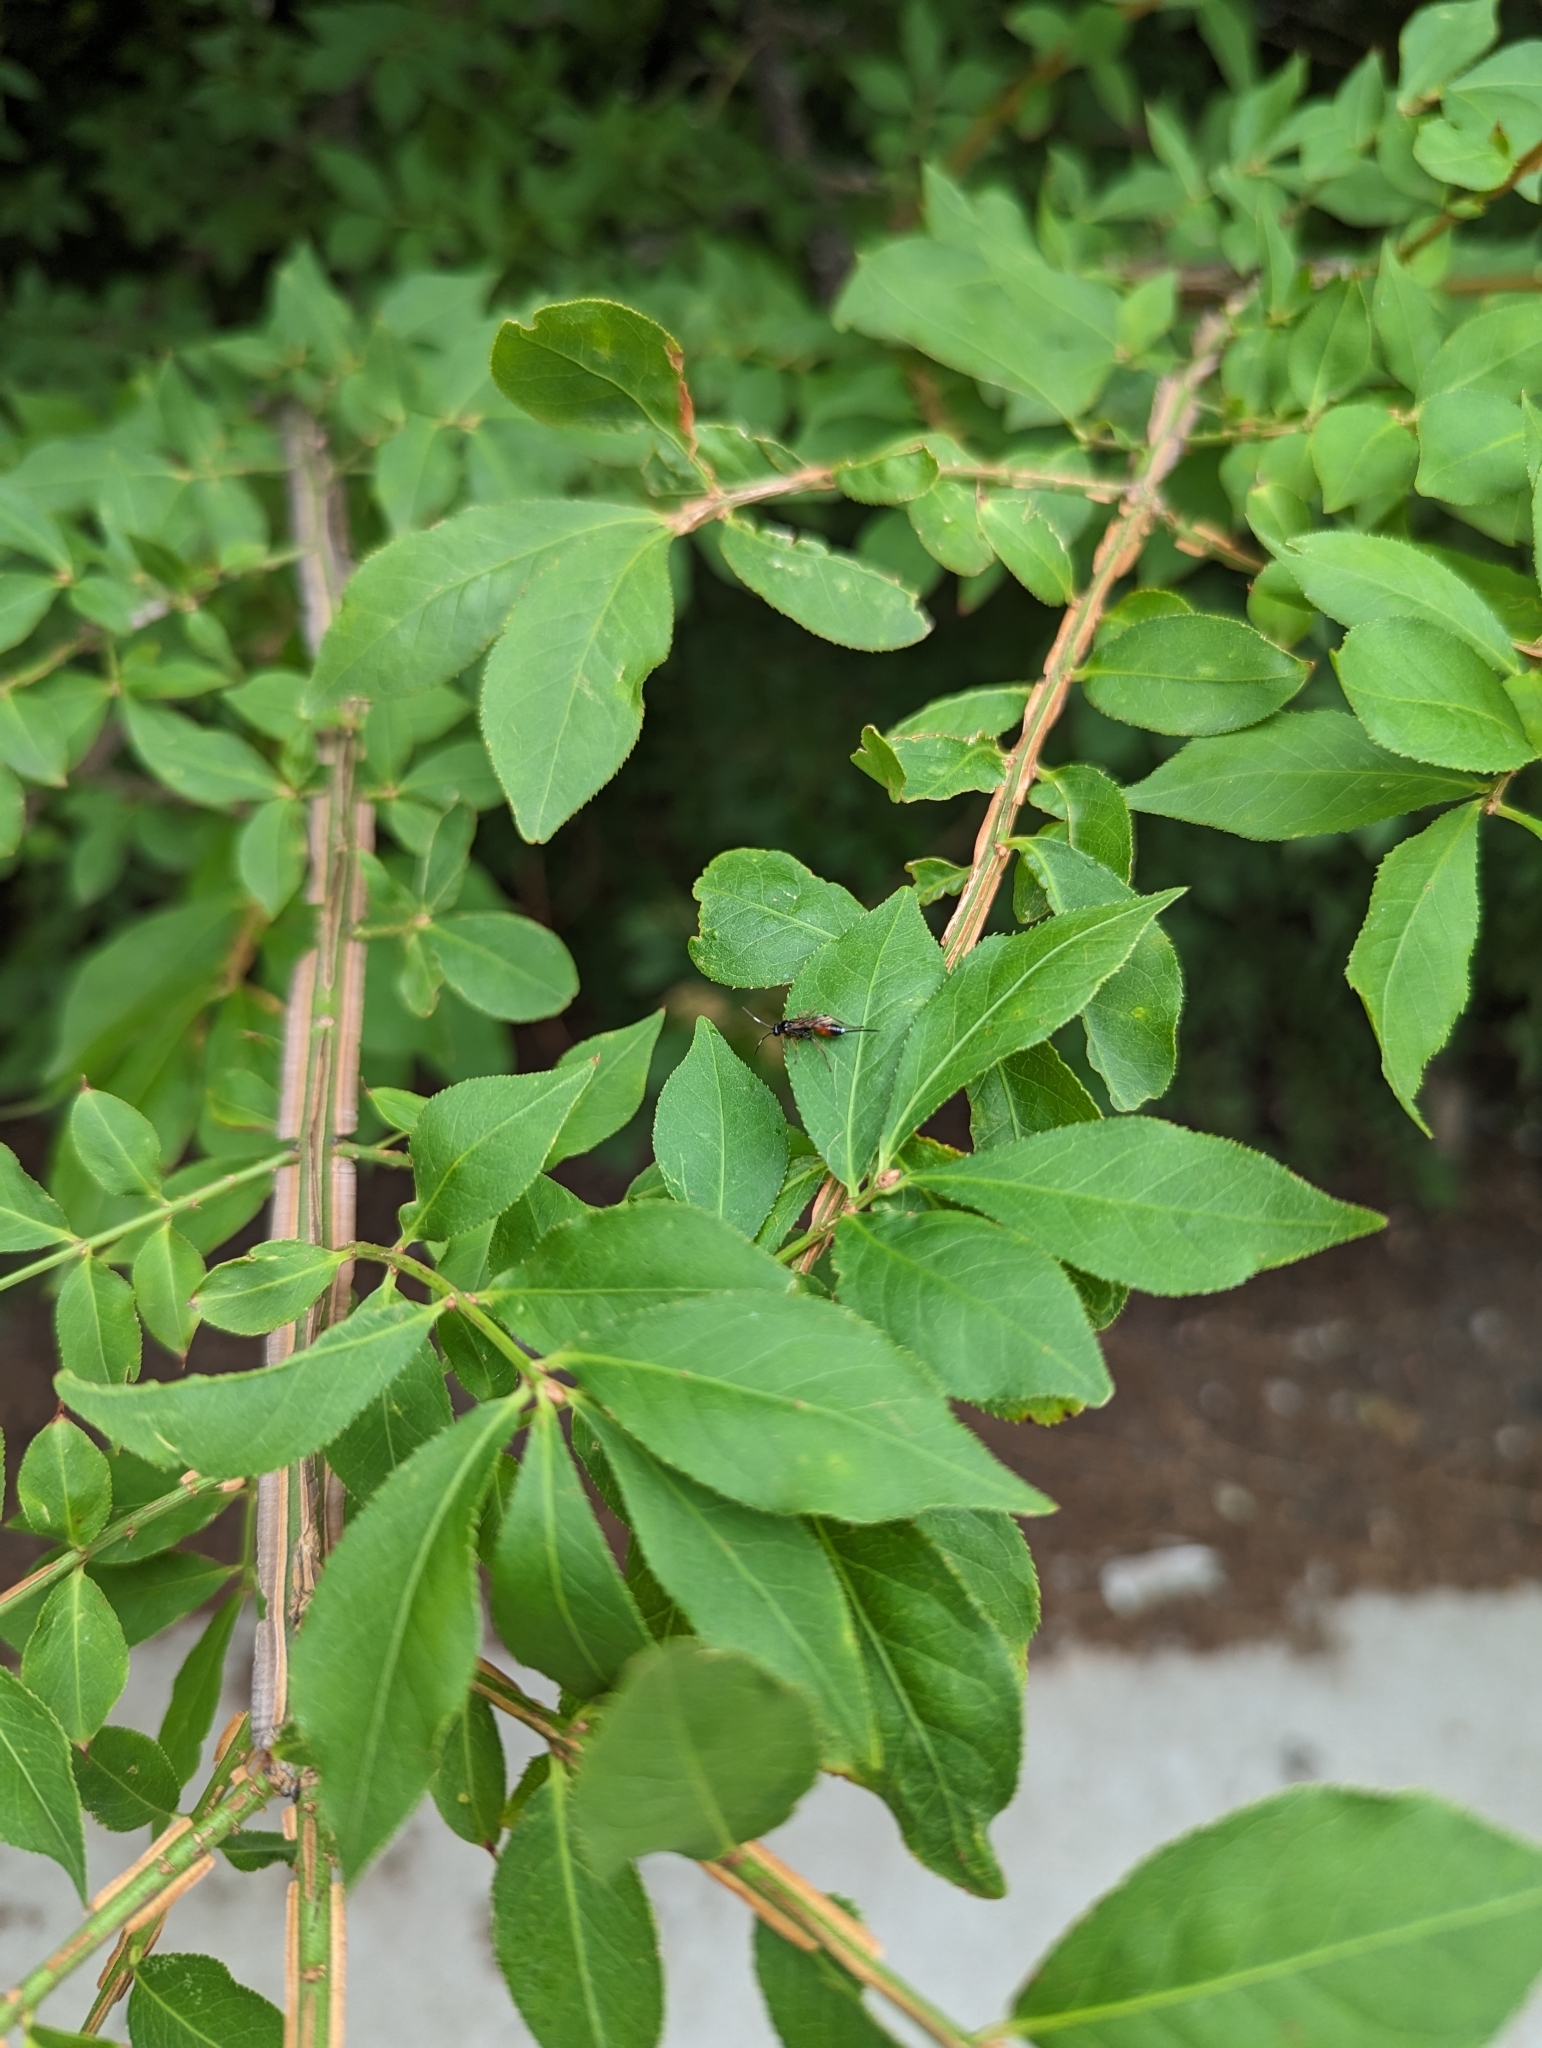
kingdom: Animalia
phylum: Arthropoda
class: Insecta
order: Hymenoptera
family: Ichneumonidae
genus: Aritranis
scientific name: Aritranis director
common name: Ichneumonid wasp
